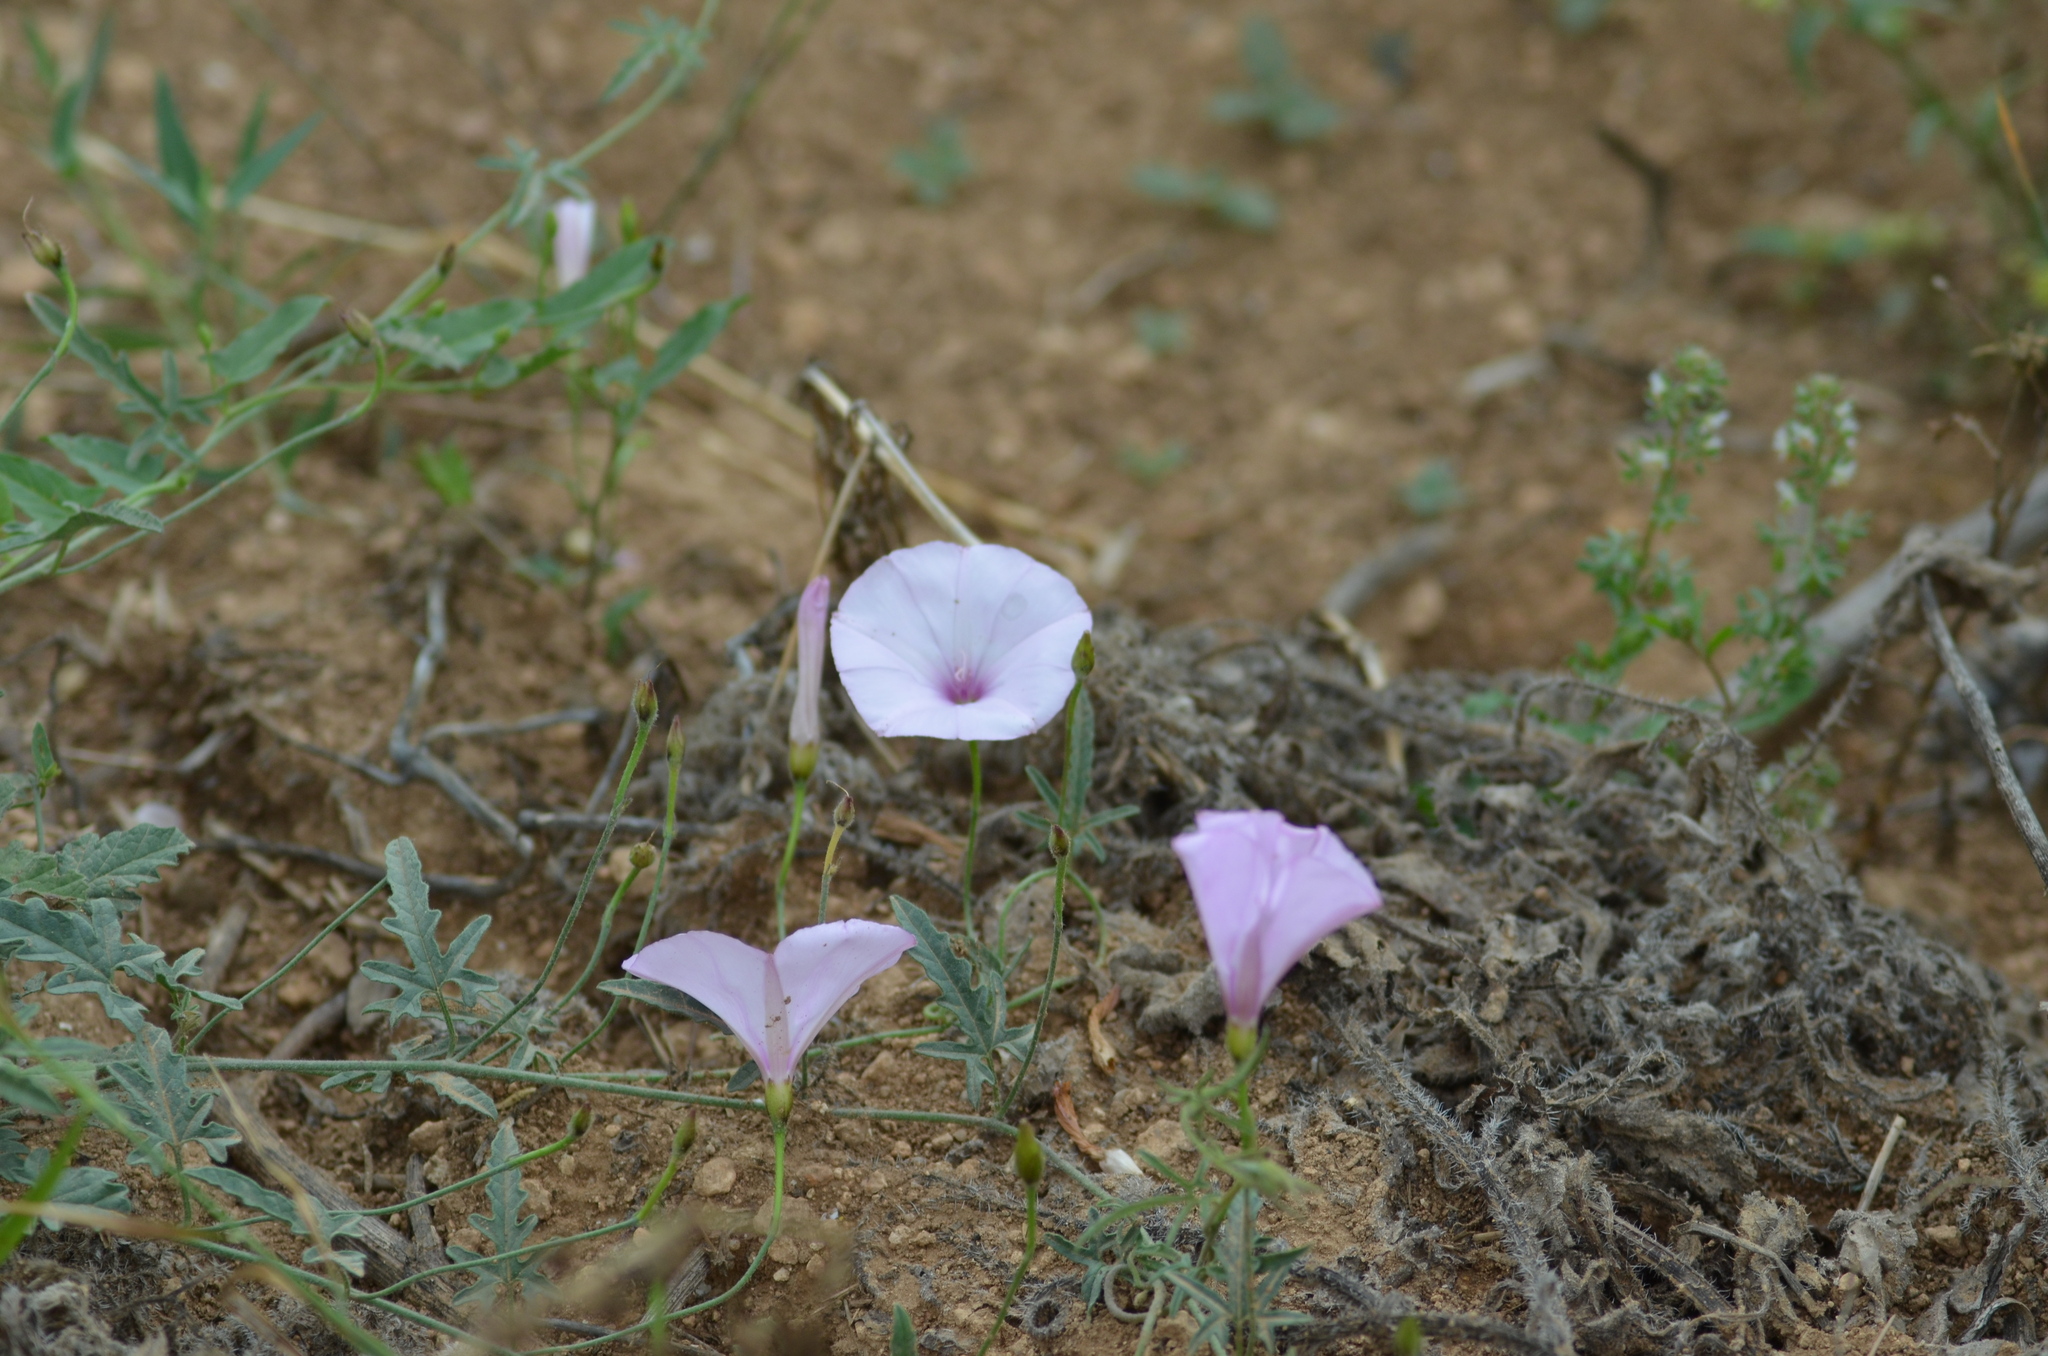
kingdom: Plantae
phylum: Tracheophyta
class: Magnoliopsida
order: Solanales
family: Convolvulaceae
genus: Convolvulus
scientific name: Convolvulus althaeoides
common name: Mallow bindweed
